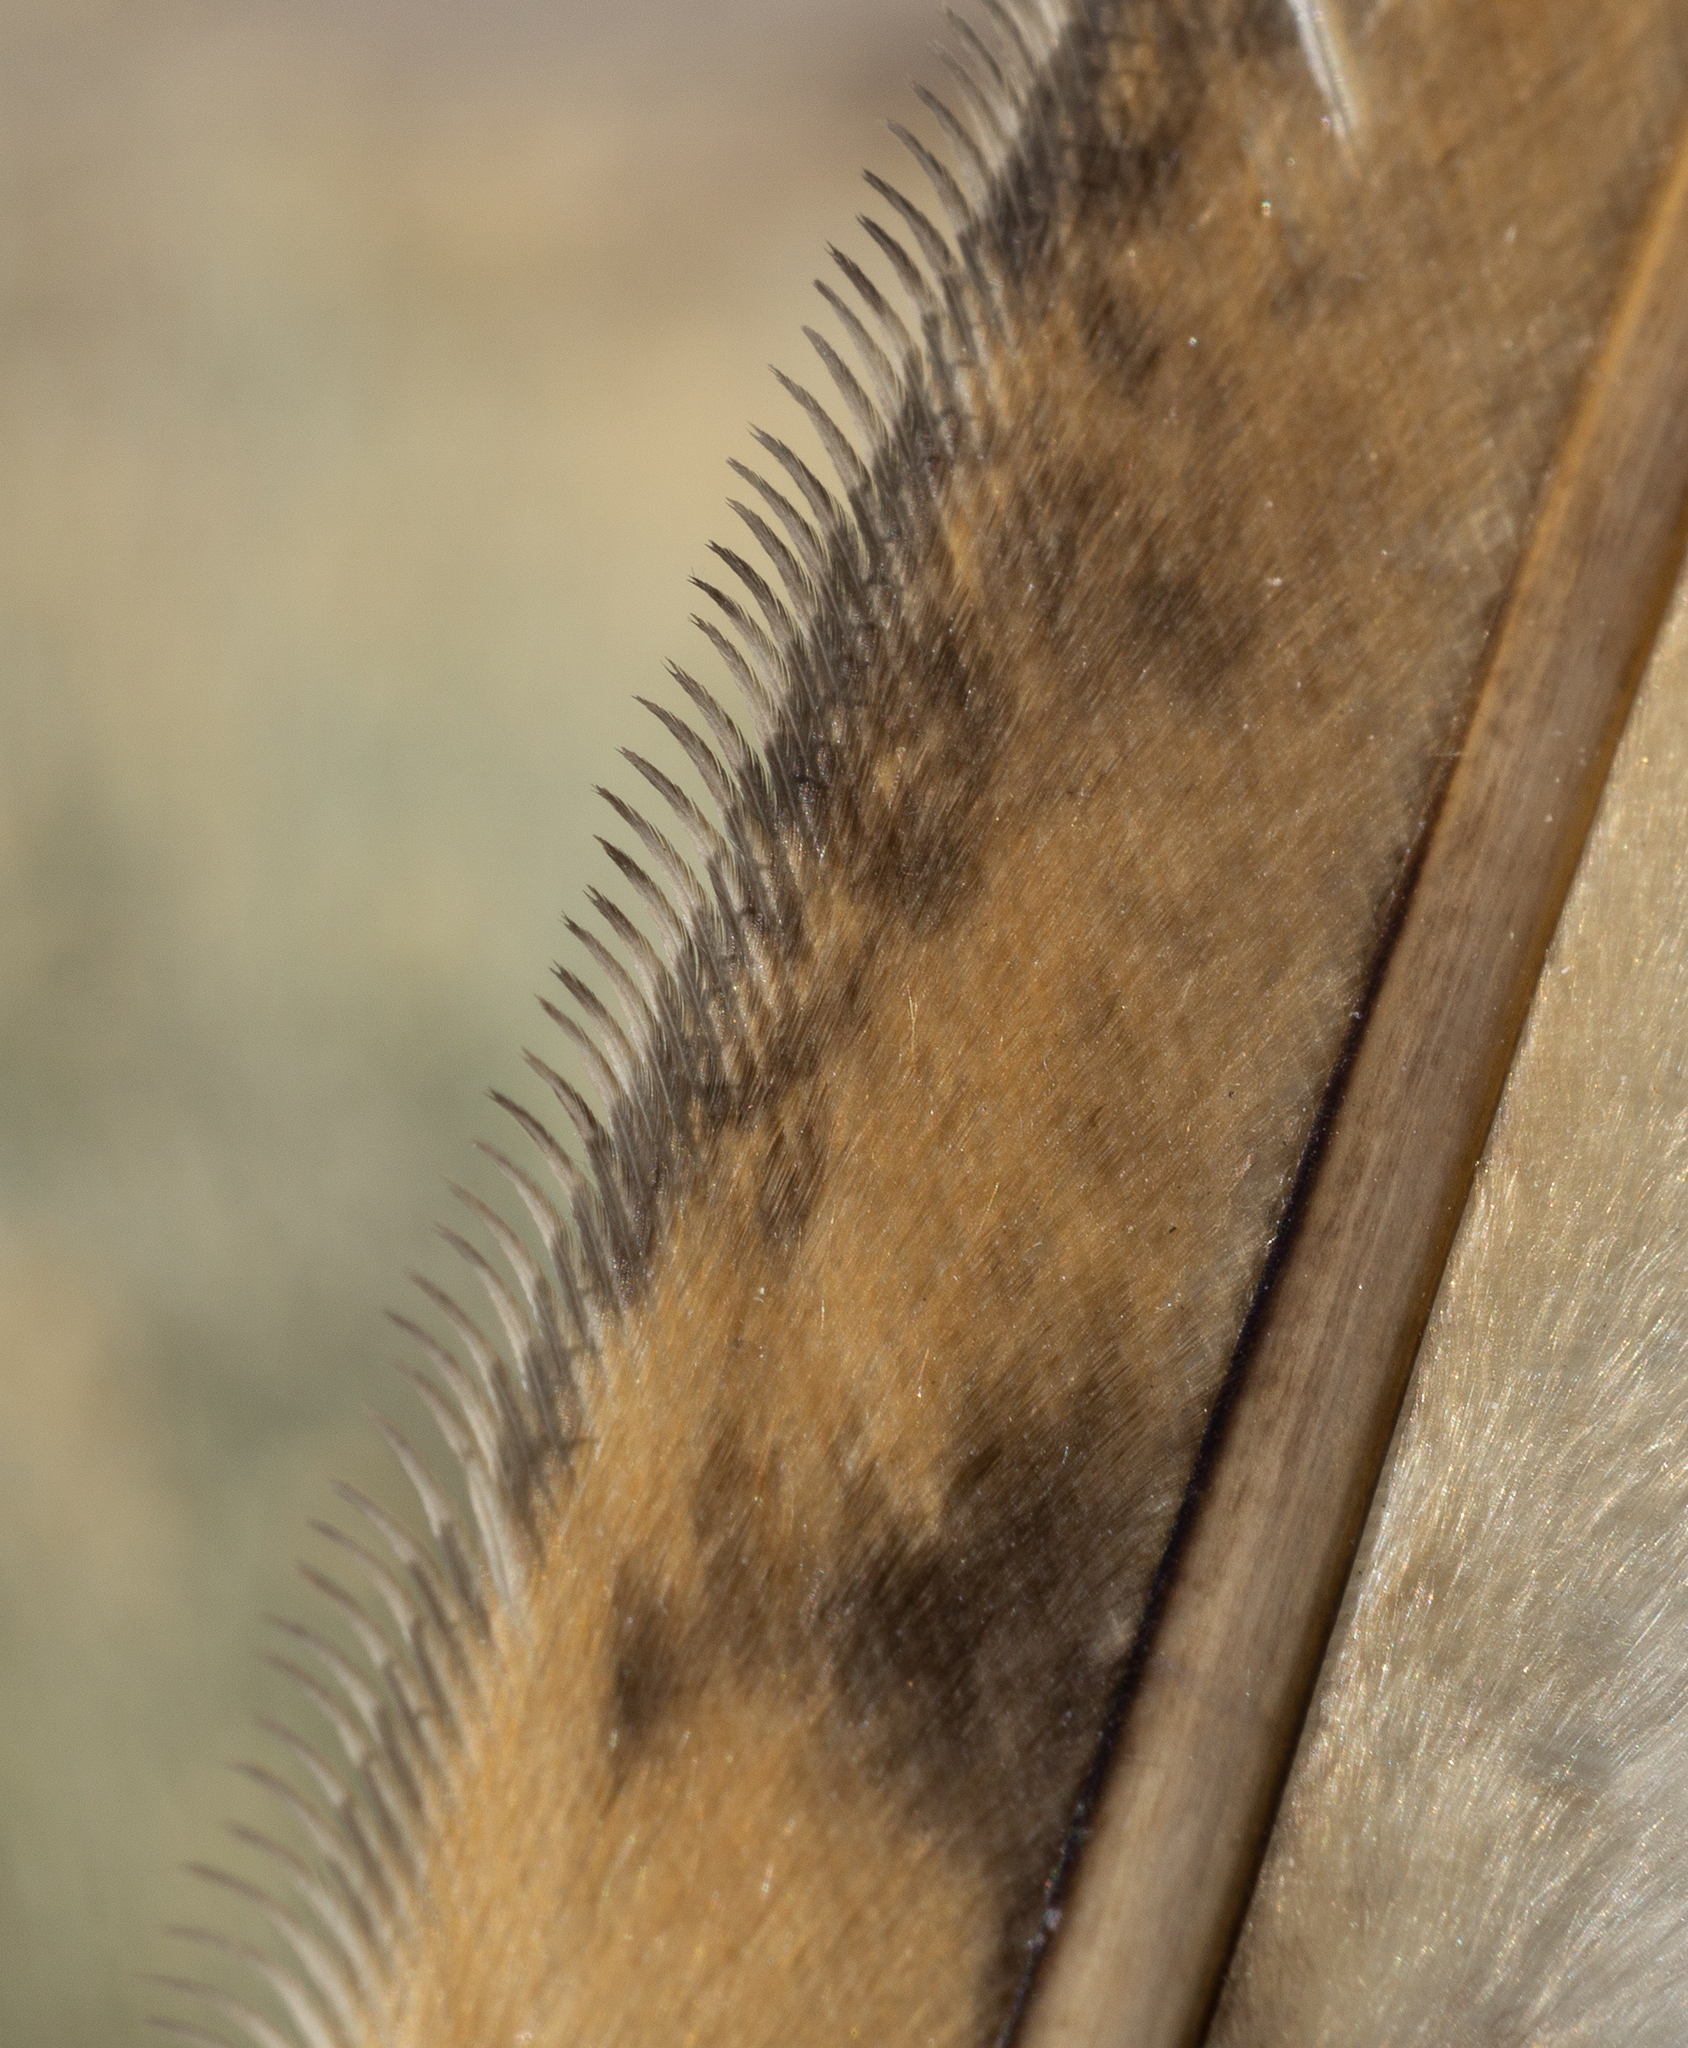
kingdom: Animalia
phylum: Chordata
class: Aves
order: Strigiformes
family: Tytonidae
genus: Tyto
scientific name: Tyto alba
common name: Barn owl
